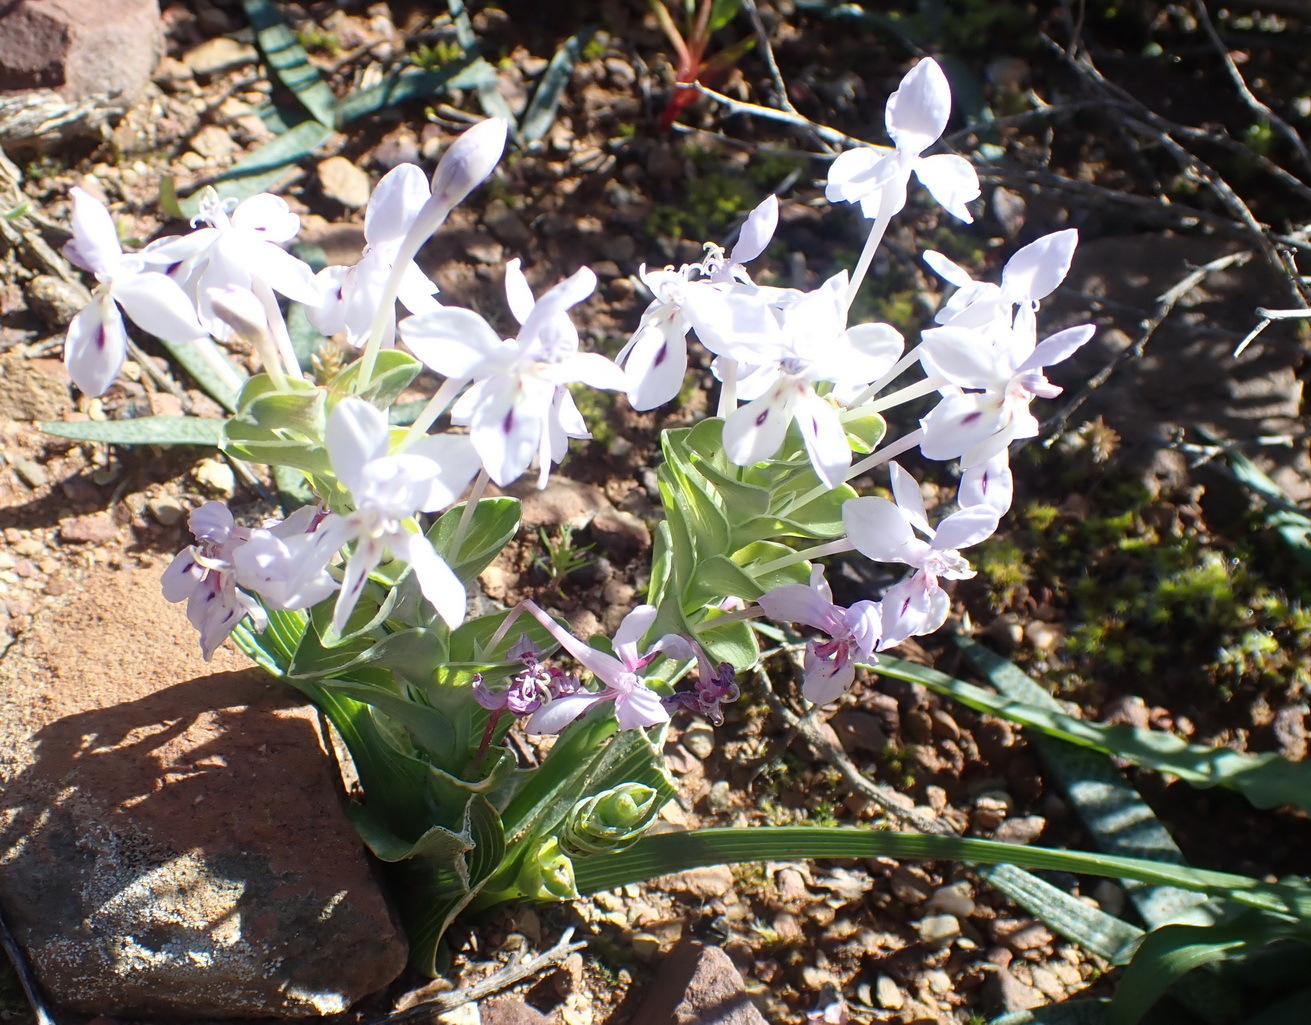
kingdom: Plantae
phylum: Tracheophyta
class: Liliopsida
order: Asparagales
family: Iridaceae
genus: Lapeirousia
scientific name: Lapeirousia pyramidalis
